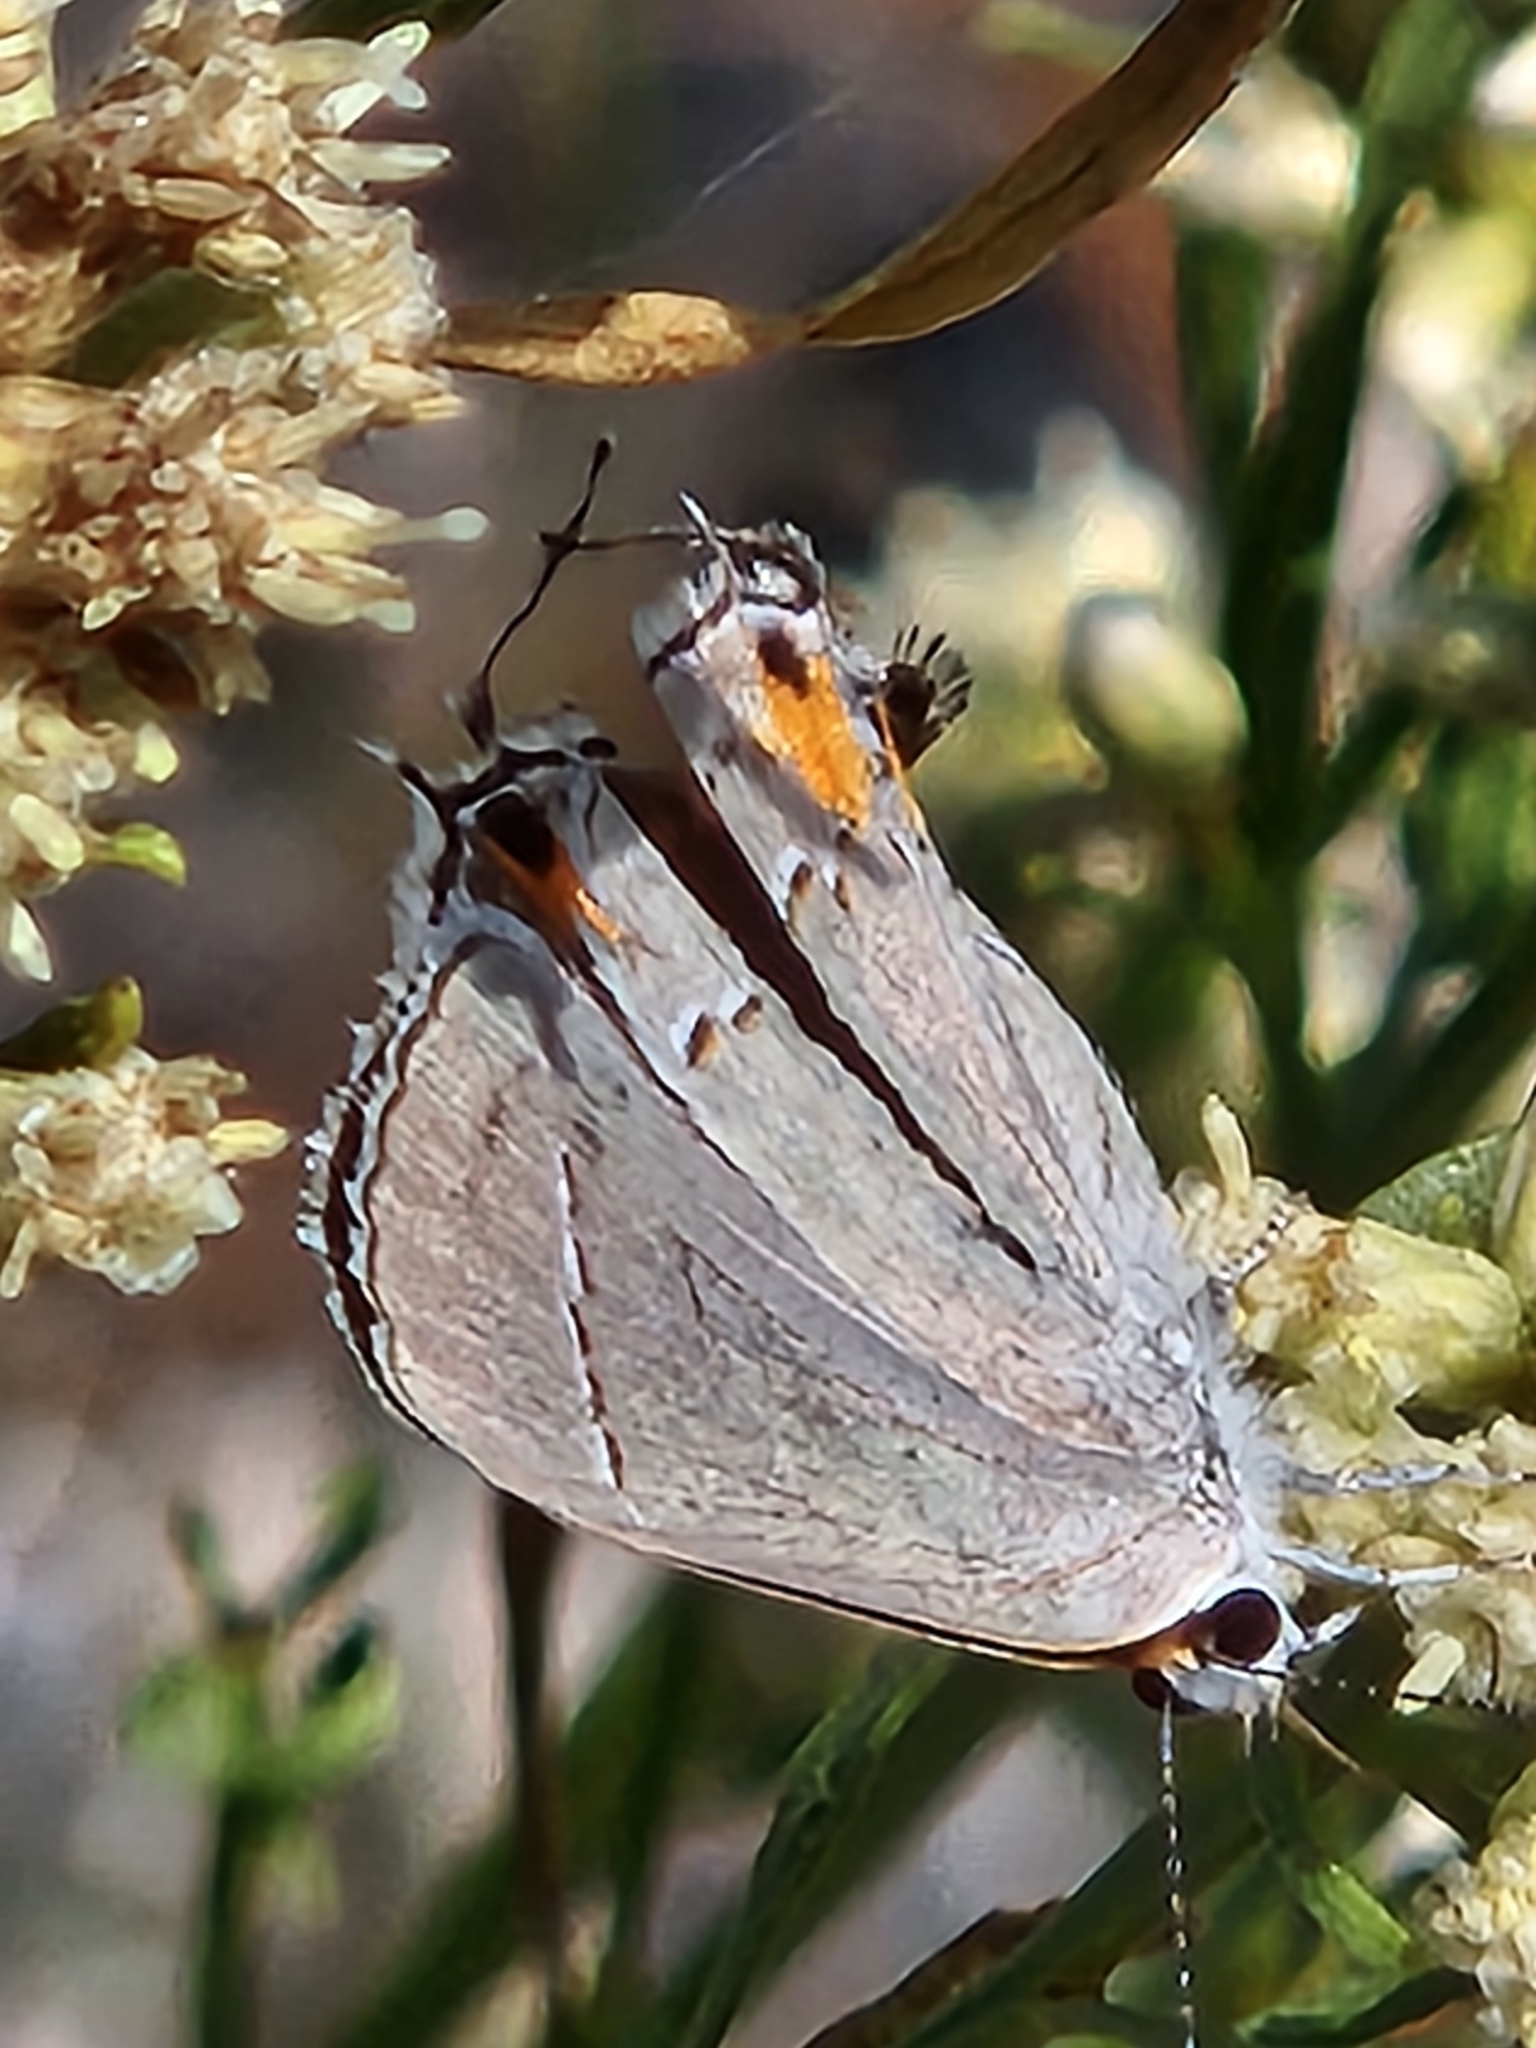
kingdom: Animalia
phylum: Arthropoda
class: Insecta
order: Lepidoptera
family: Lycaenidae
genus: Strymon
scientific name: Strymon melinus
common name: Gray hairstreak
